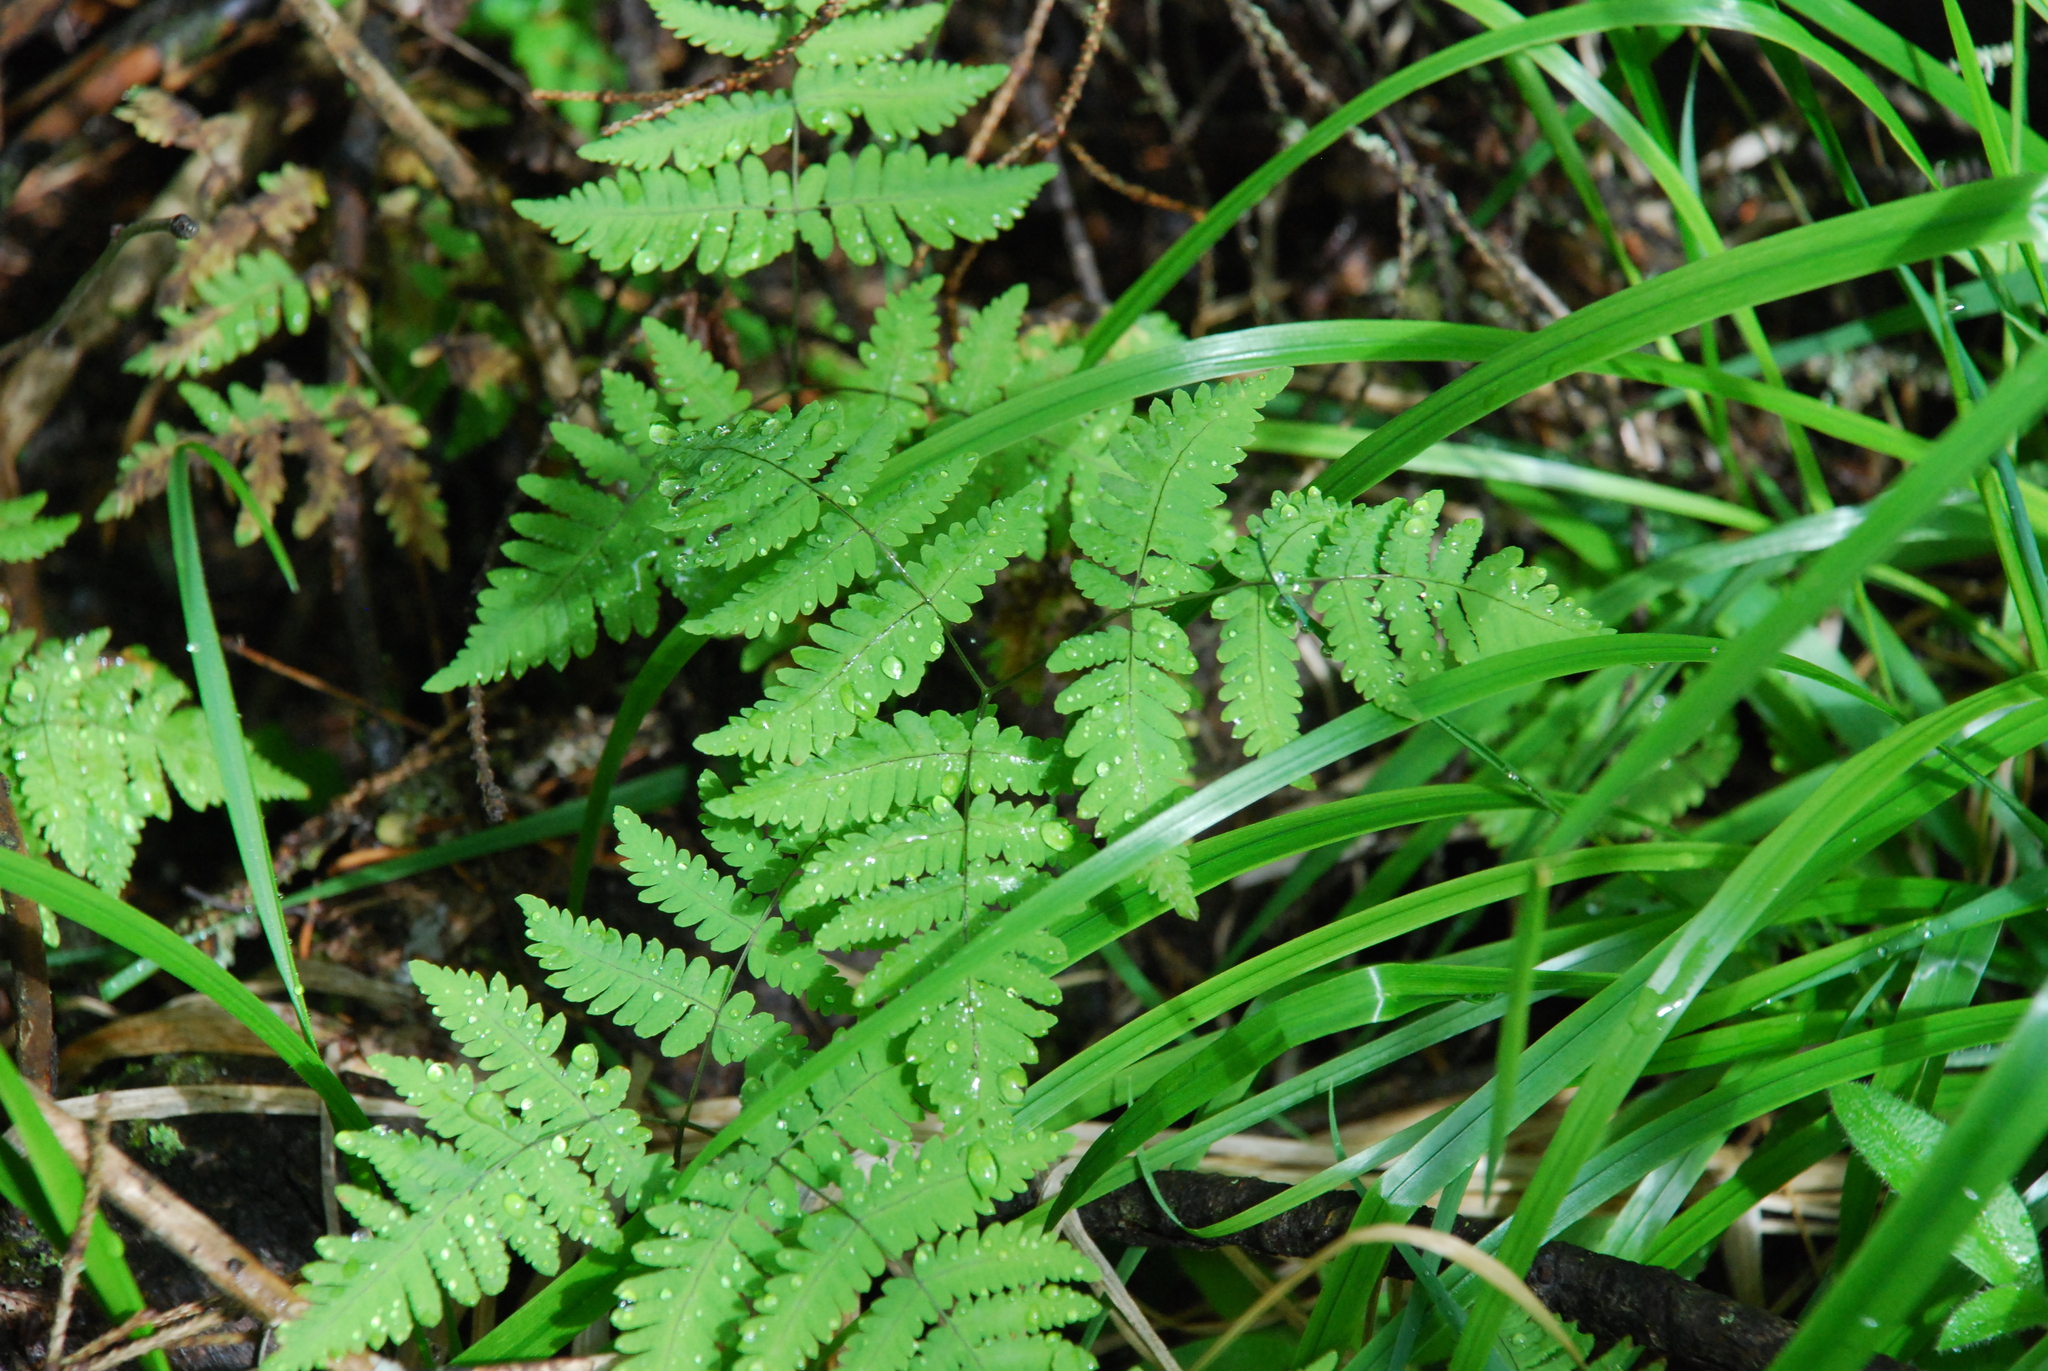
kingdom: Plantae
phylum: Tracheophyta
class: Polypodiopsida
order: Polypodiales
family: Cystopteridaceae
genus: Gymnocarpium
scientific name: Gymnocarpium dryopteris
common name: Oak fern
